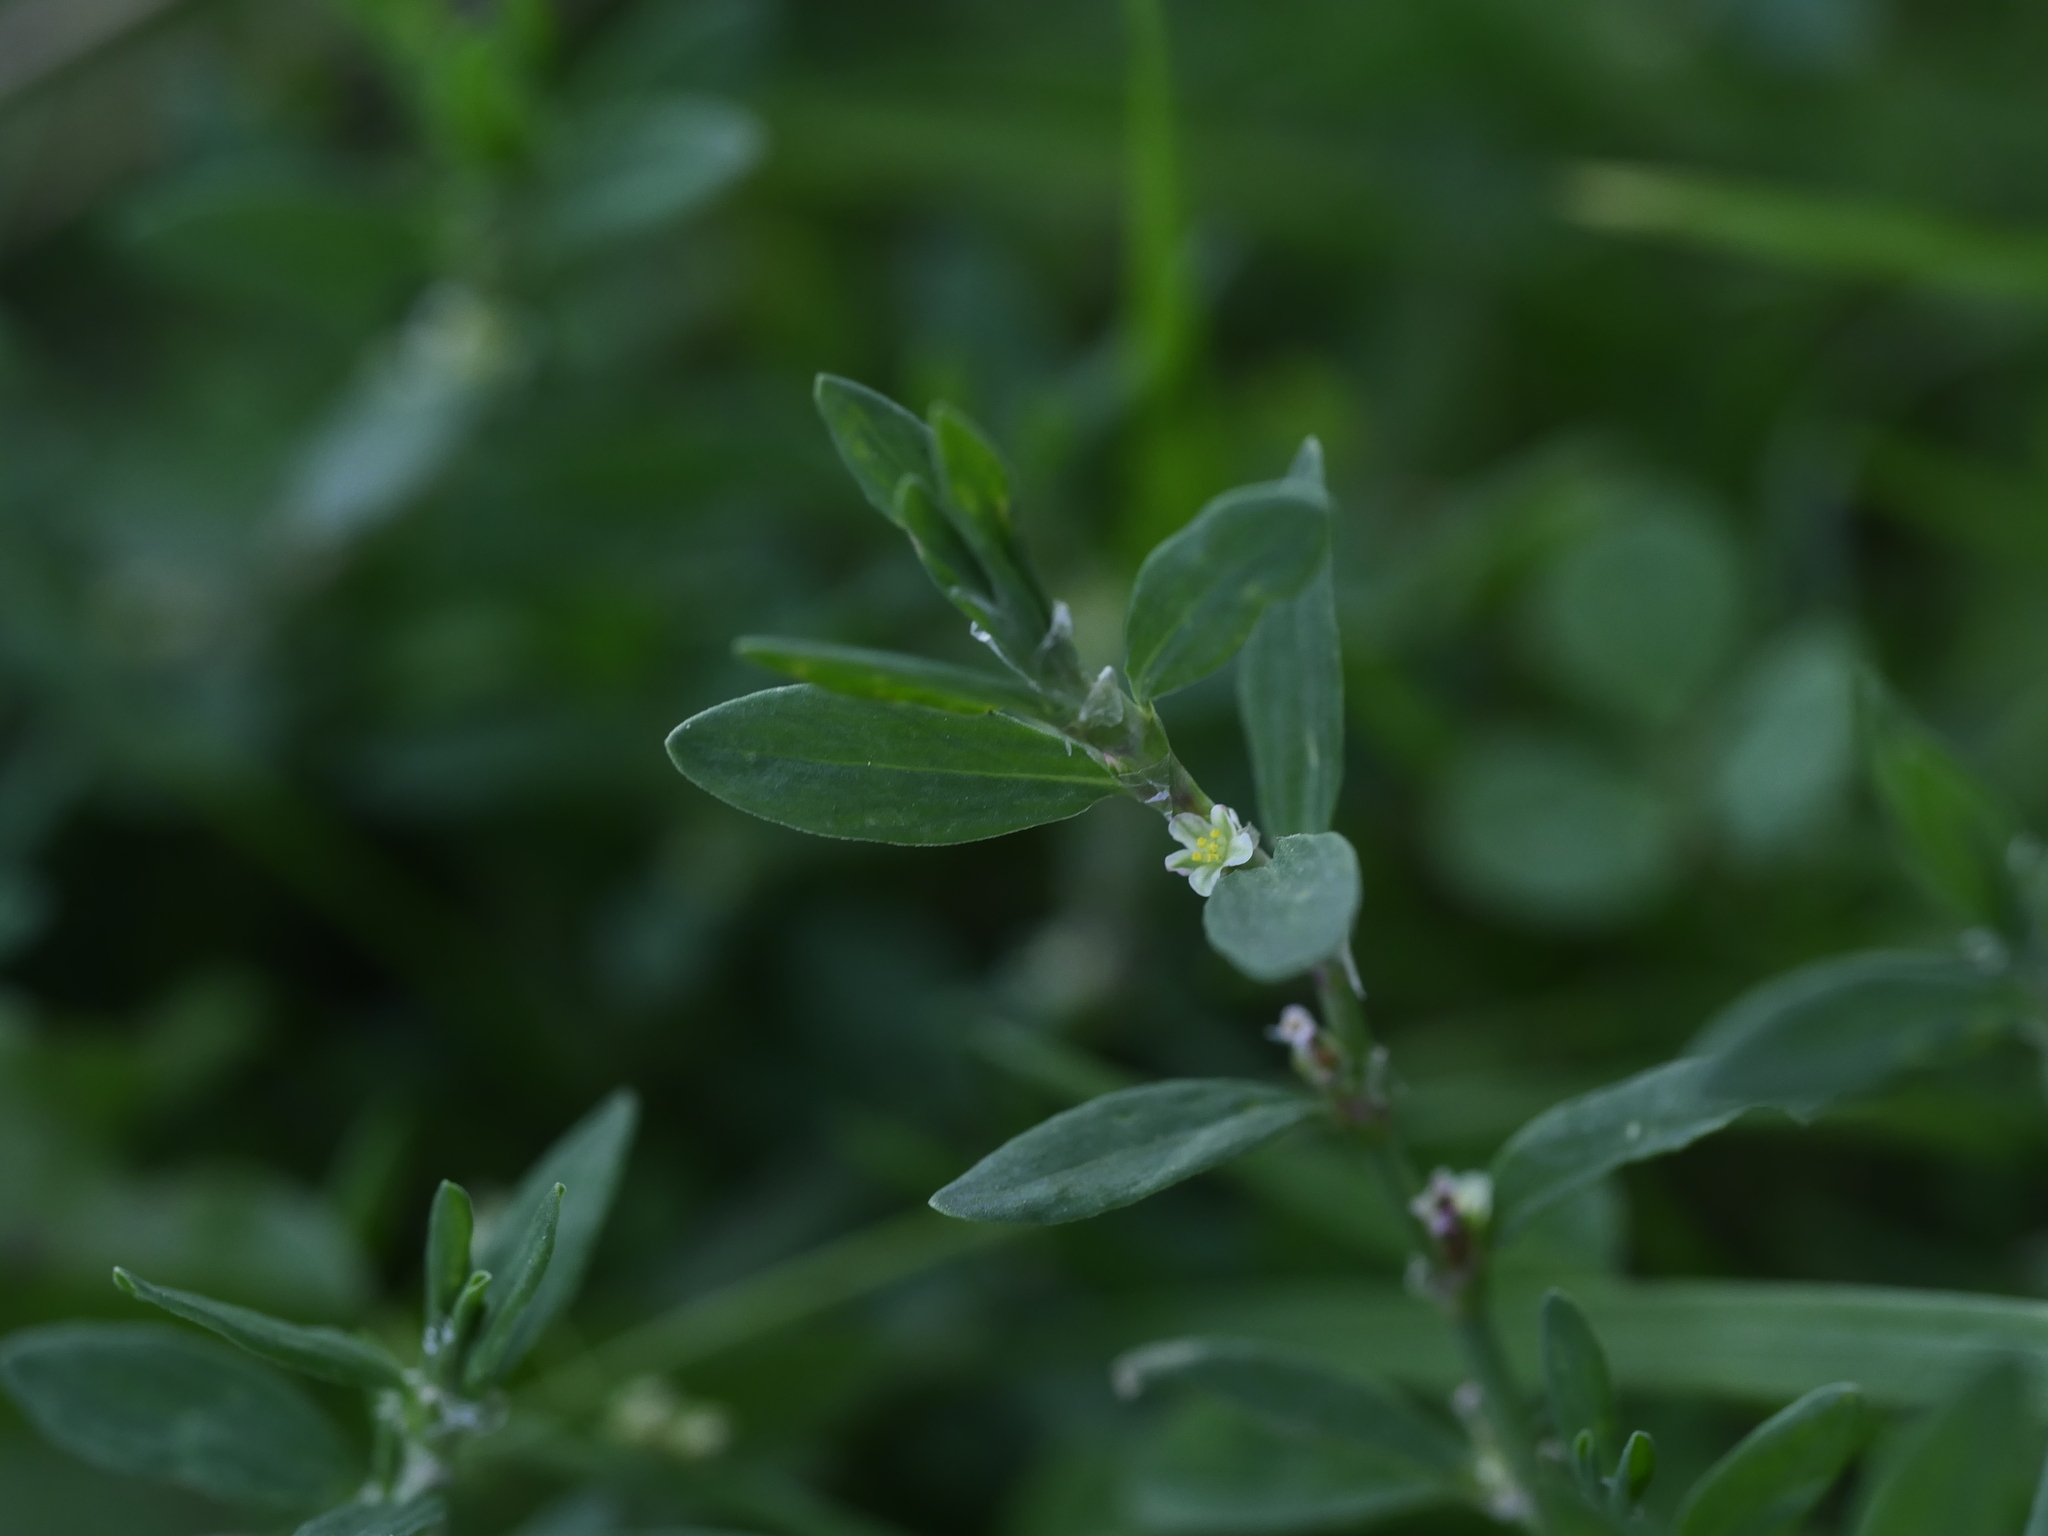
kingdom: Plantae
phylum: Tracheophyta
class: Magnoliopsida
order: Caryophyllales
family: Polygonaceae
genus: Polygonum
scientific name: Polygonum aviculare
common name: Prostrate knotweed
